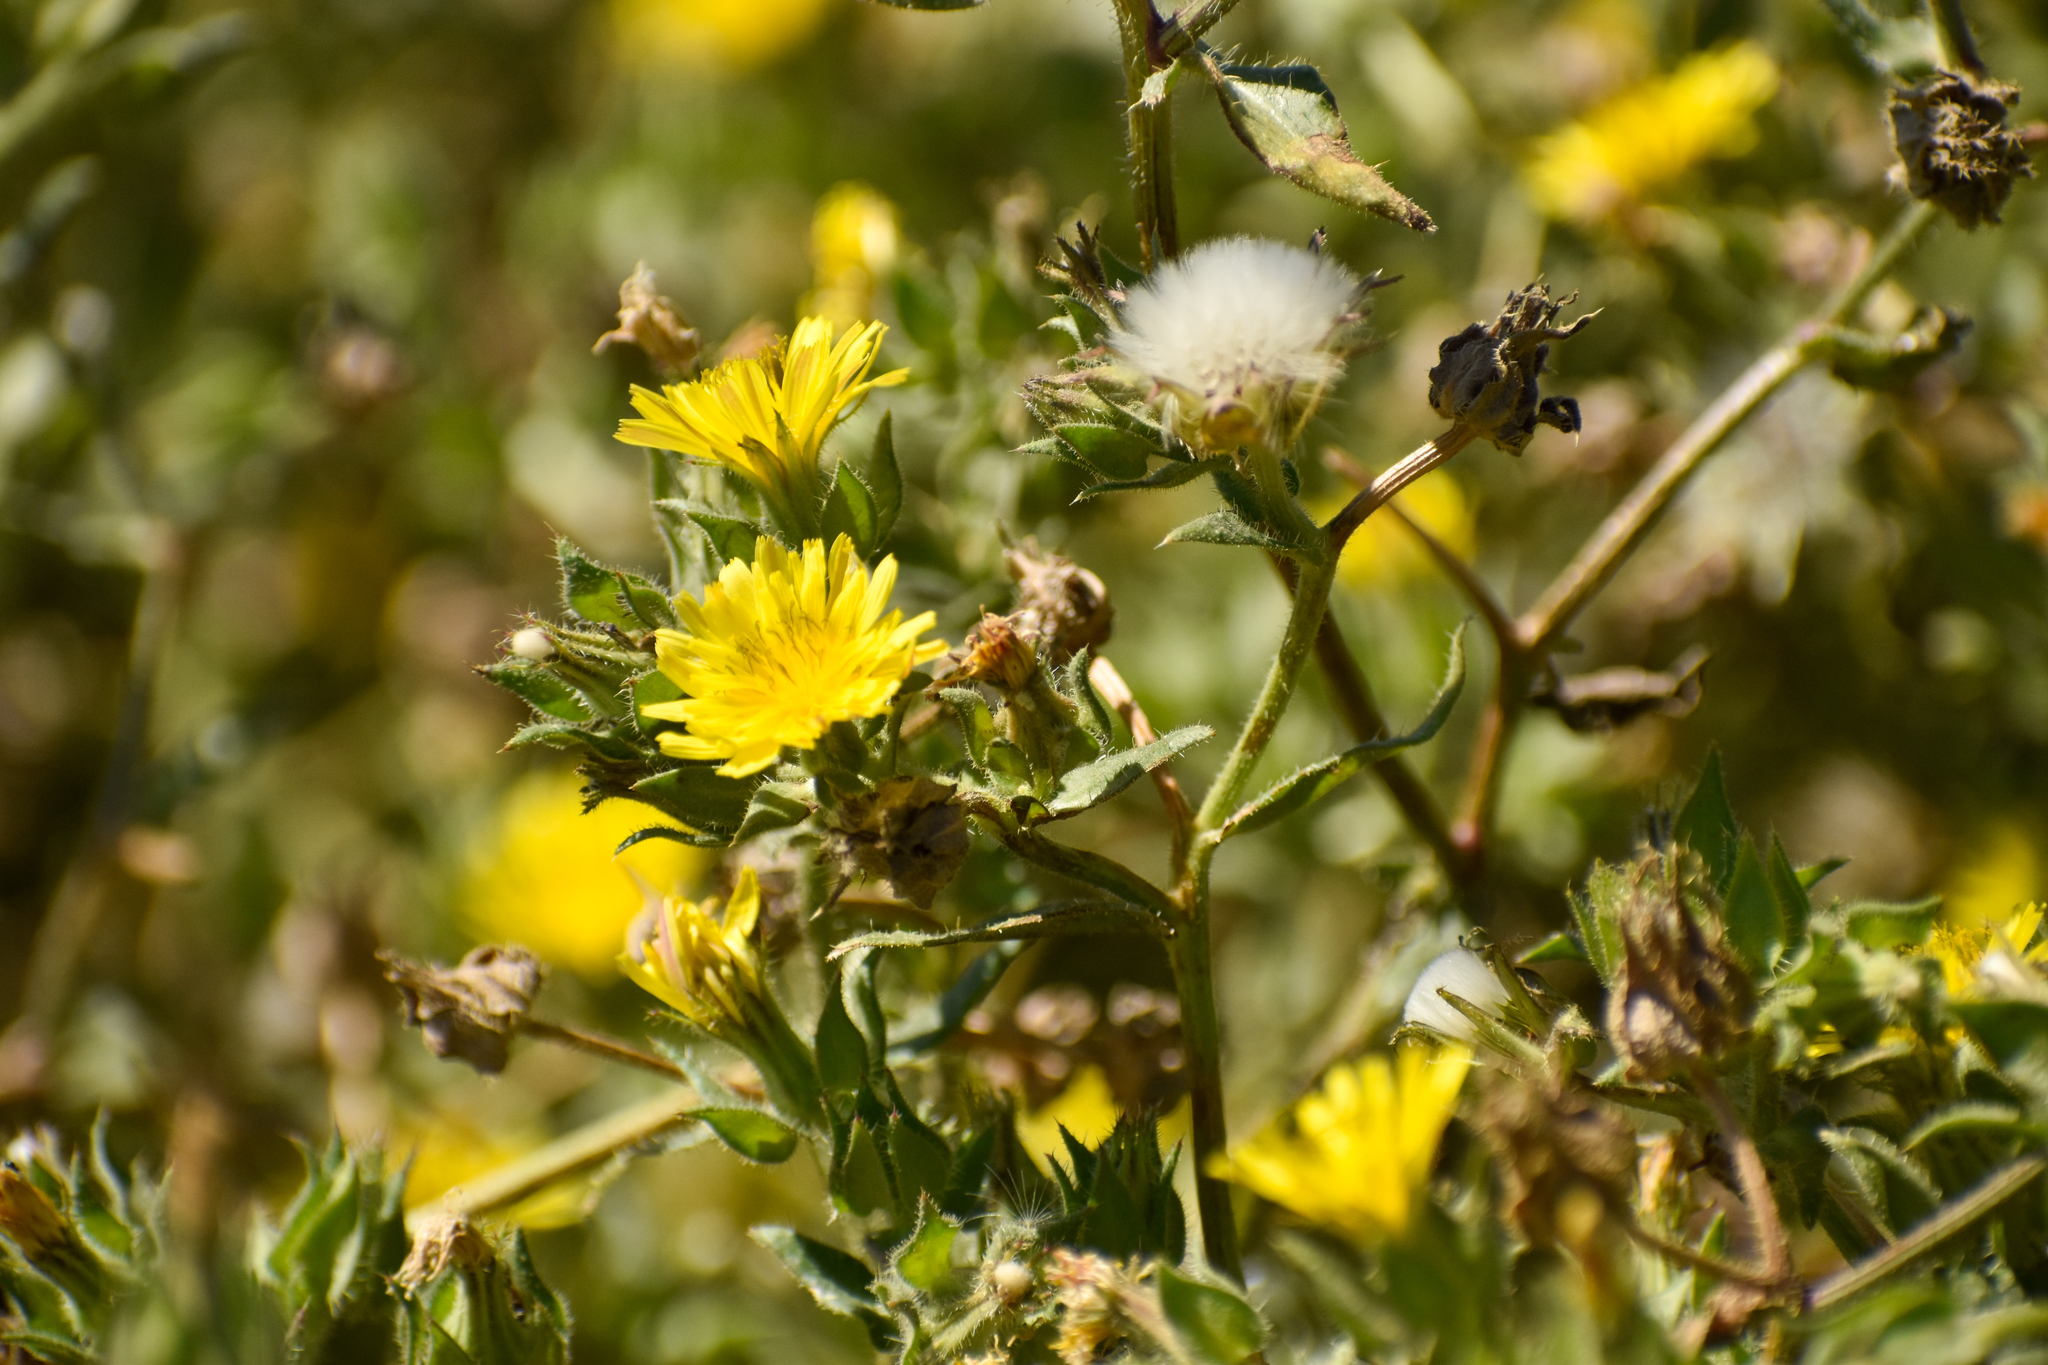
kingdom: Plantae
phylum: Tracheophyta
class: Magnoliopsida
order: Asterales
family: Asteraceae
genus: Helminthotheca
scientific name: Helminthotheca echioides
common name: Ox-tongue
